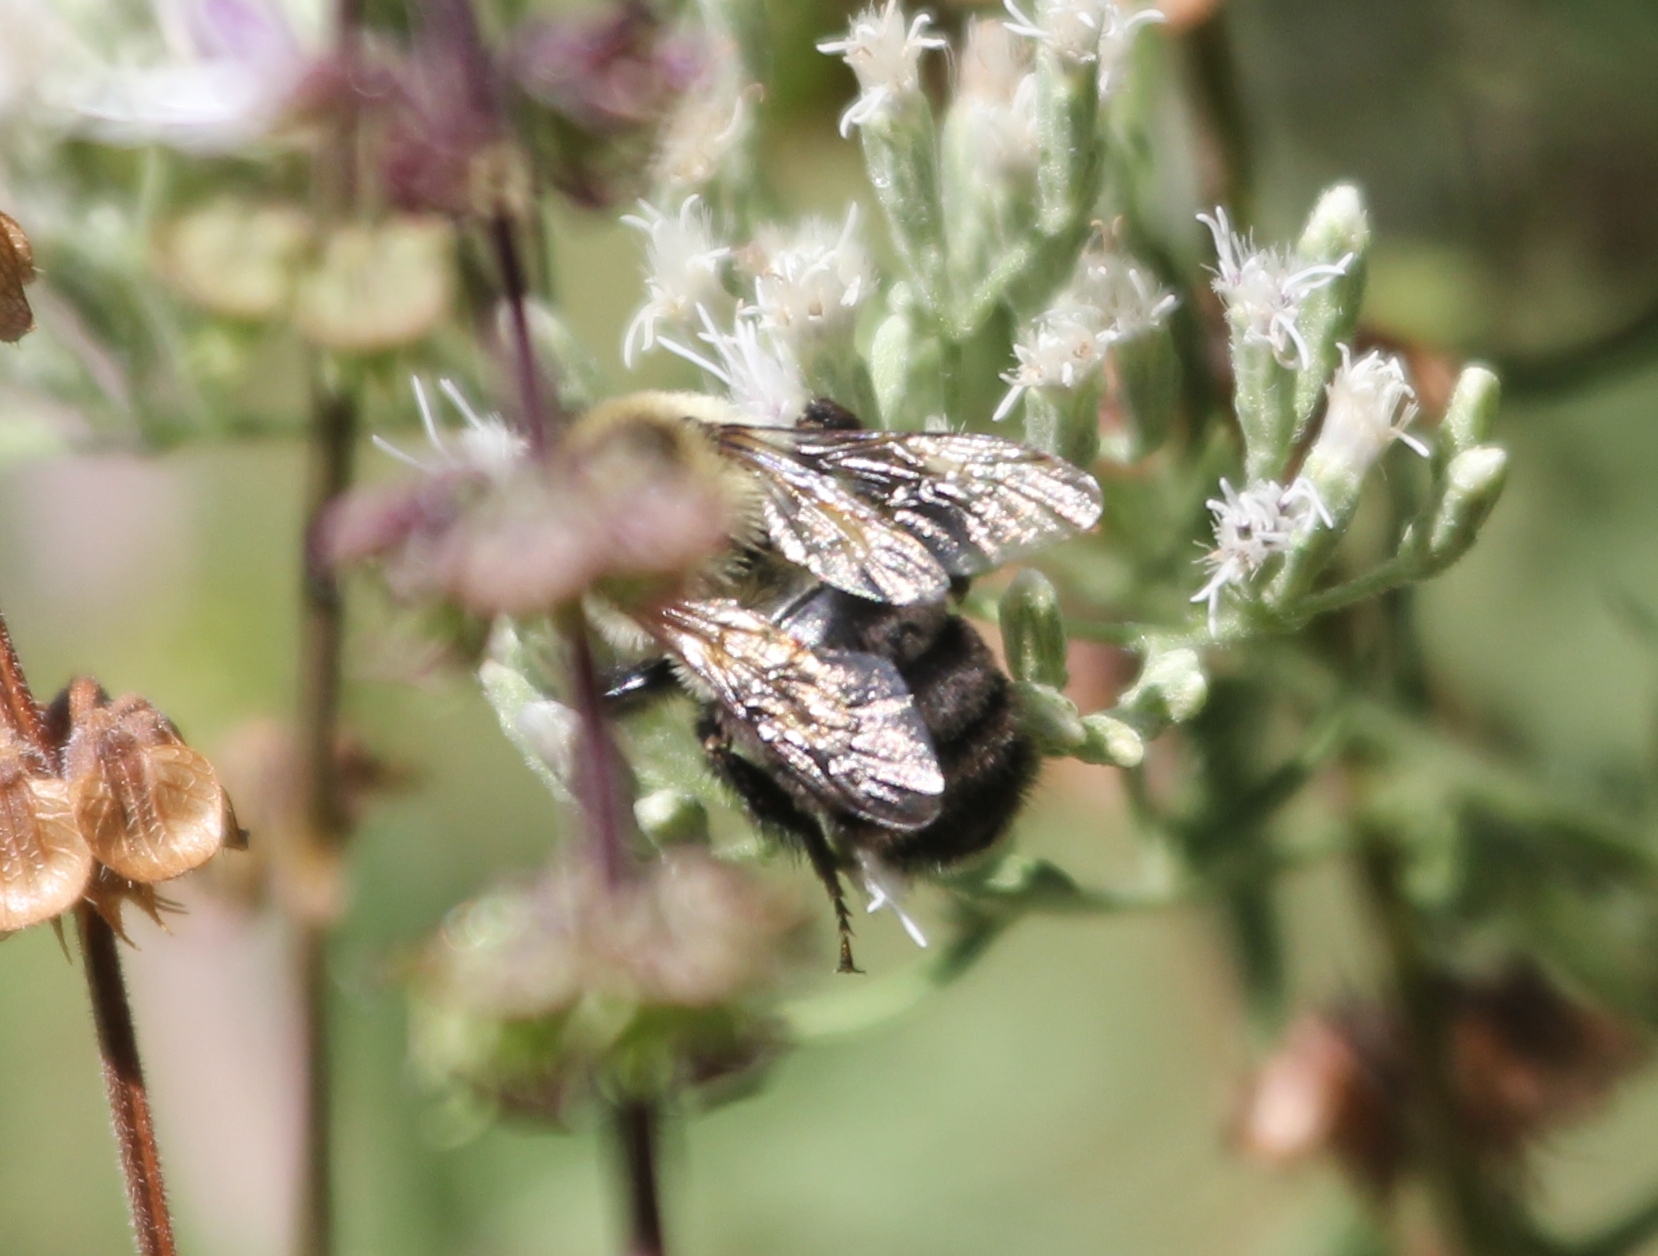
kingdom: Animalia
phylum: Arthropoda
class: Insecta
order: Hymenoptera
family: Apidae
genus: Bombus
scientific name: Bombus impatiens
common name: Common eastern bumble bee
